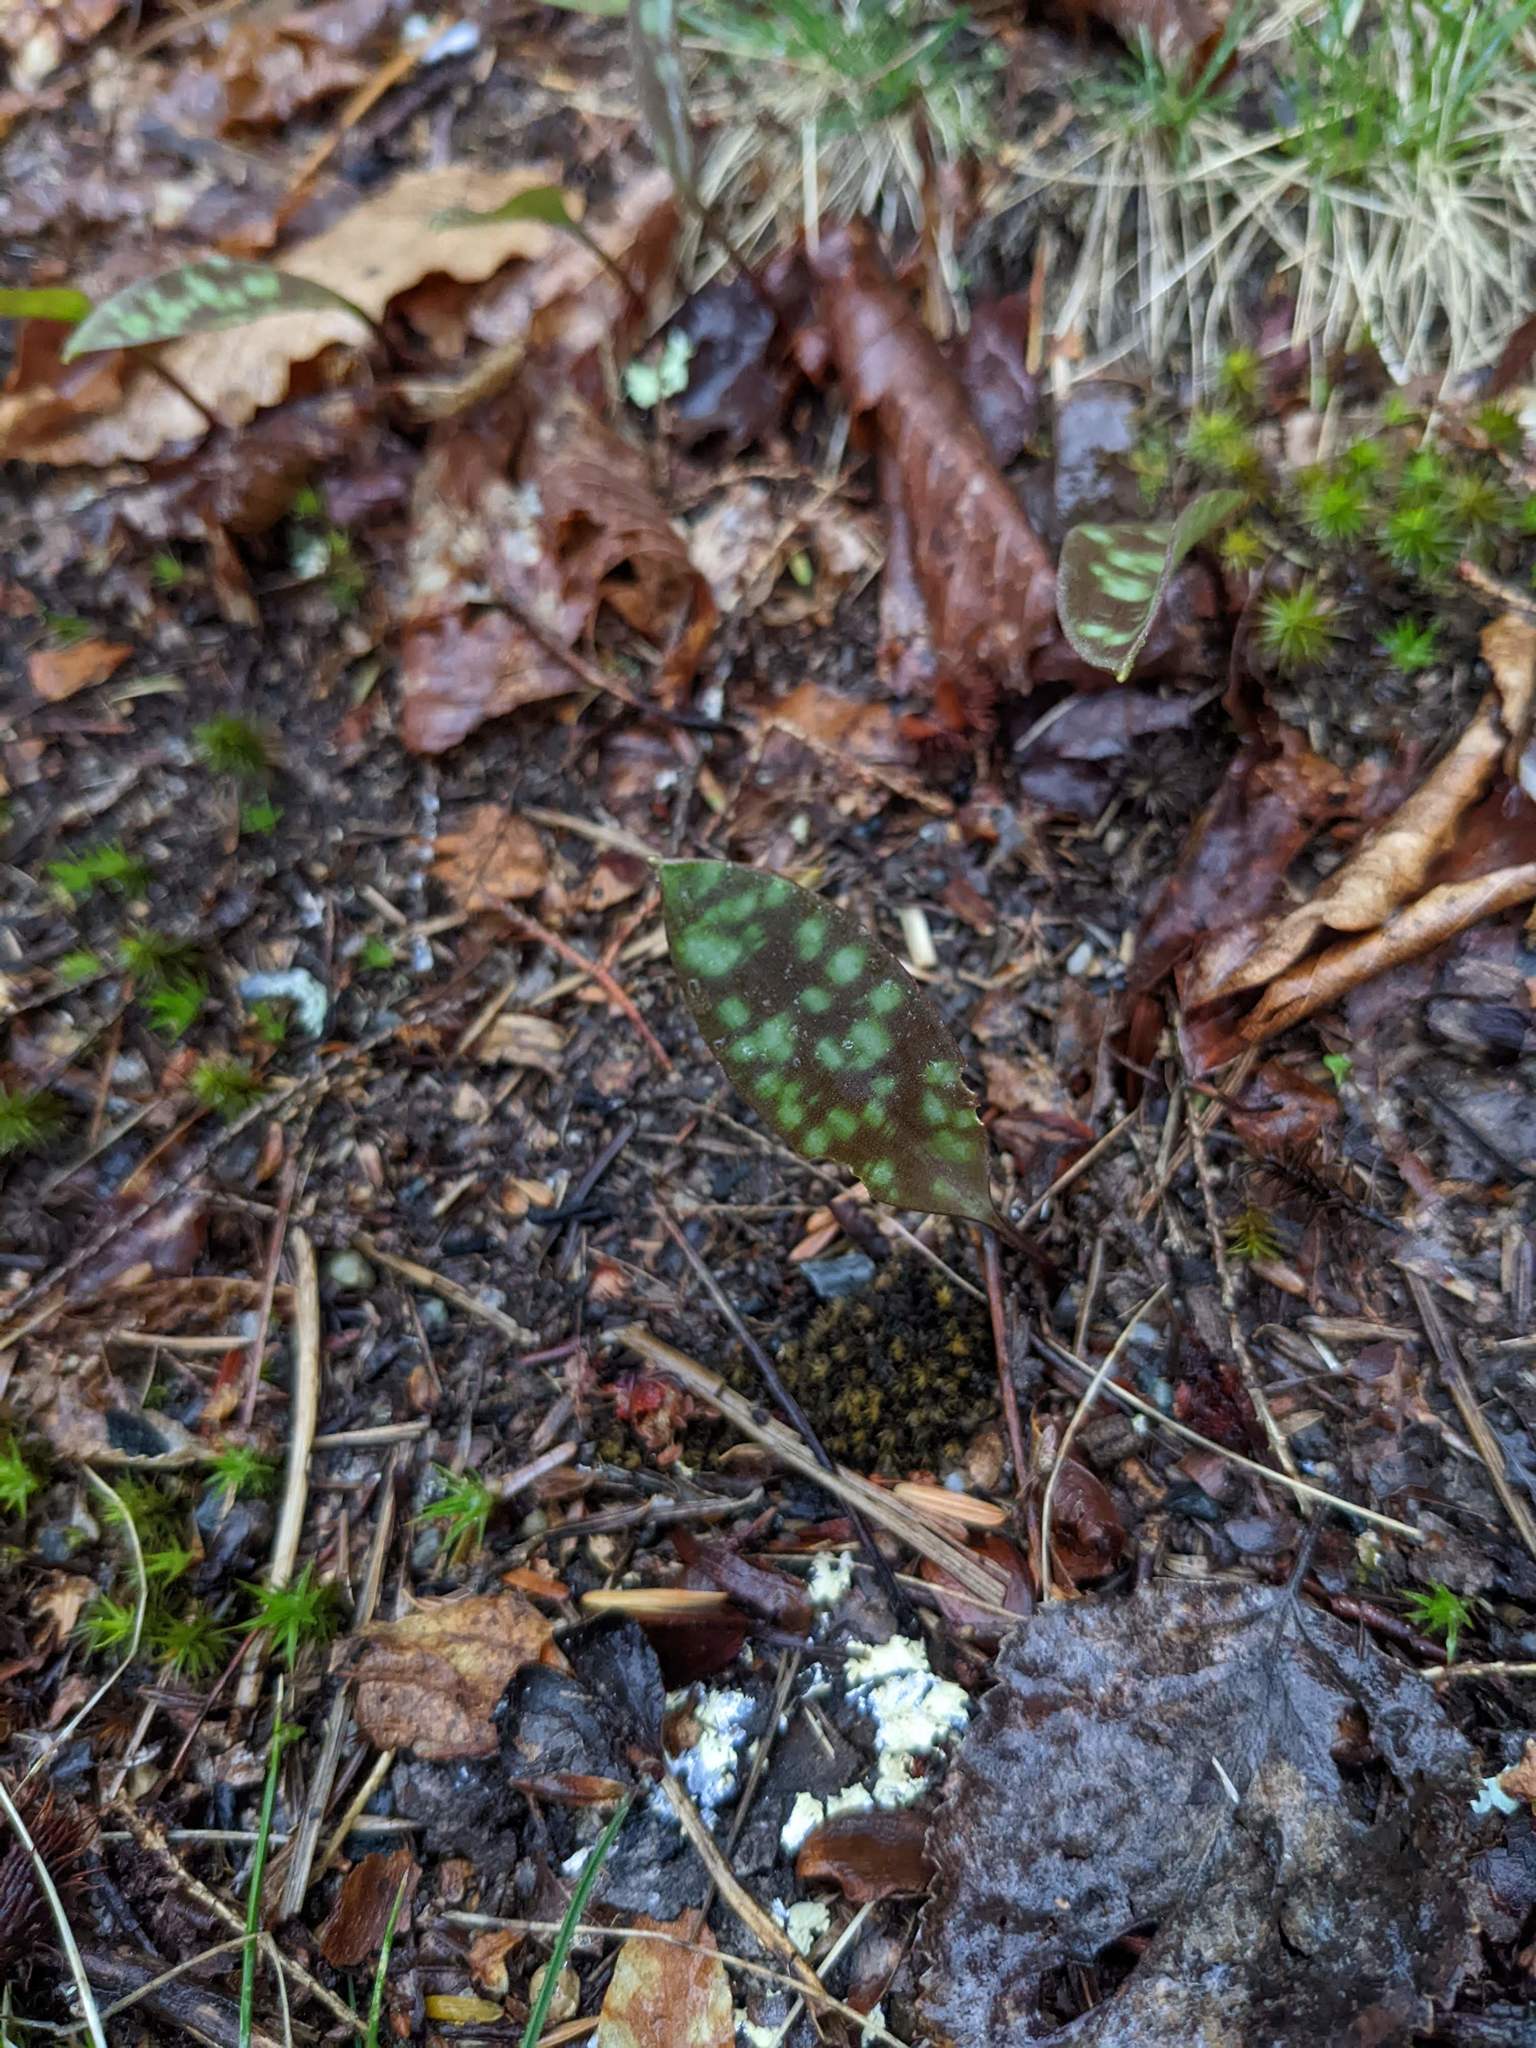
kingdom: Plantae
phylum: Tracheophyta
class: Liliopsida
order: Liliales
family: Liliaceae
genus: Erythronium
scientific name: Erythronium americanum
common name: Yellow adder's-tongue
